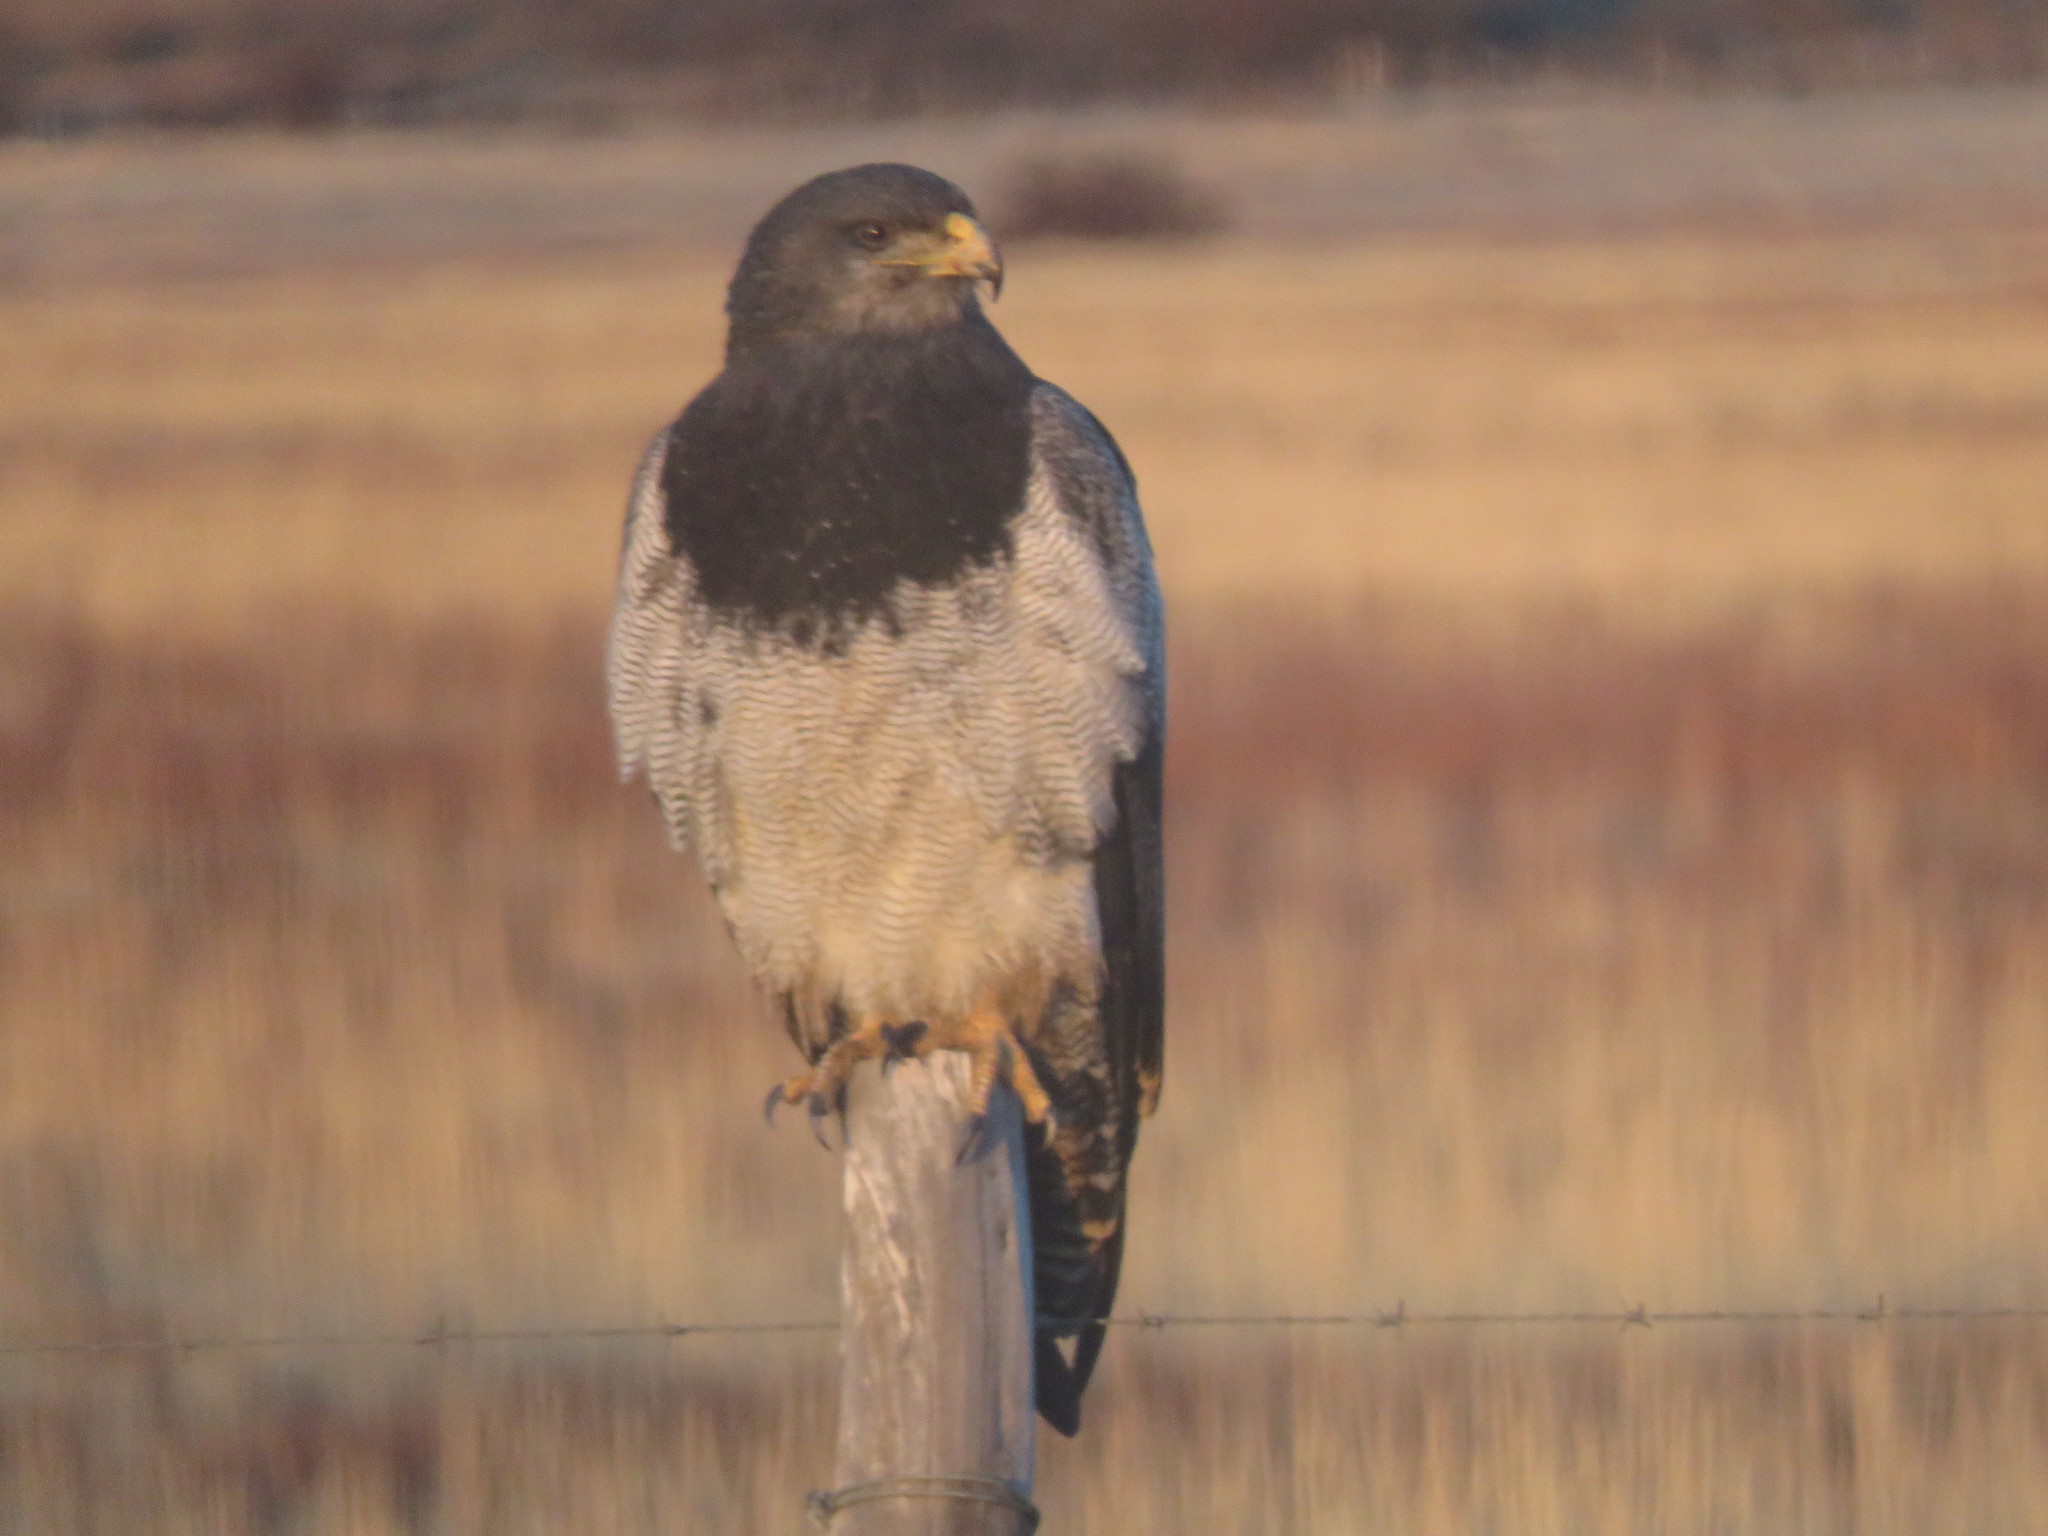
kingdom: Animalia
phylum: Chordata
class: Aves
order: Accipitriformes
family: Accipitridae
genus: Geranoaetus
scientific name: Geranoaetus melanoleucus
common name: Black-chested buzzard-eagle
